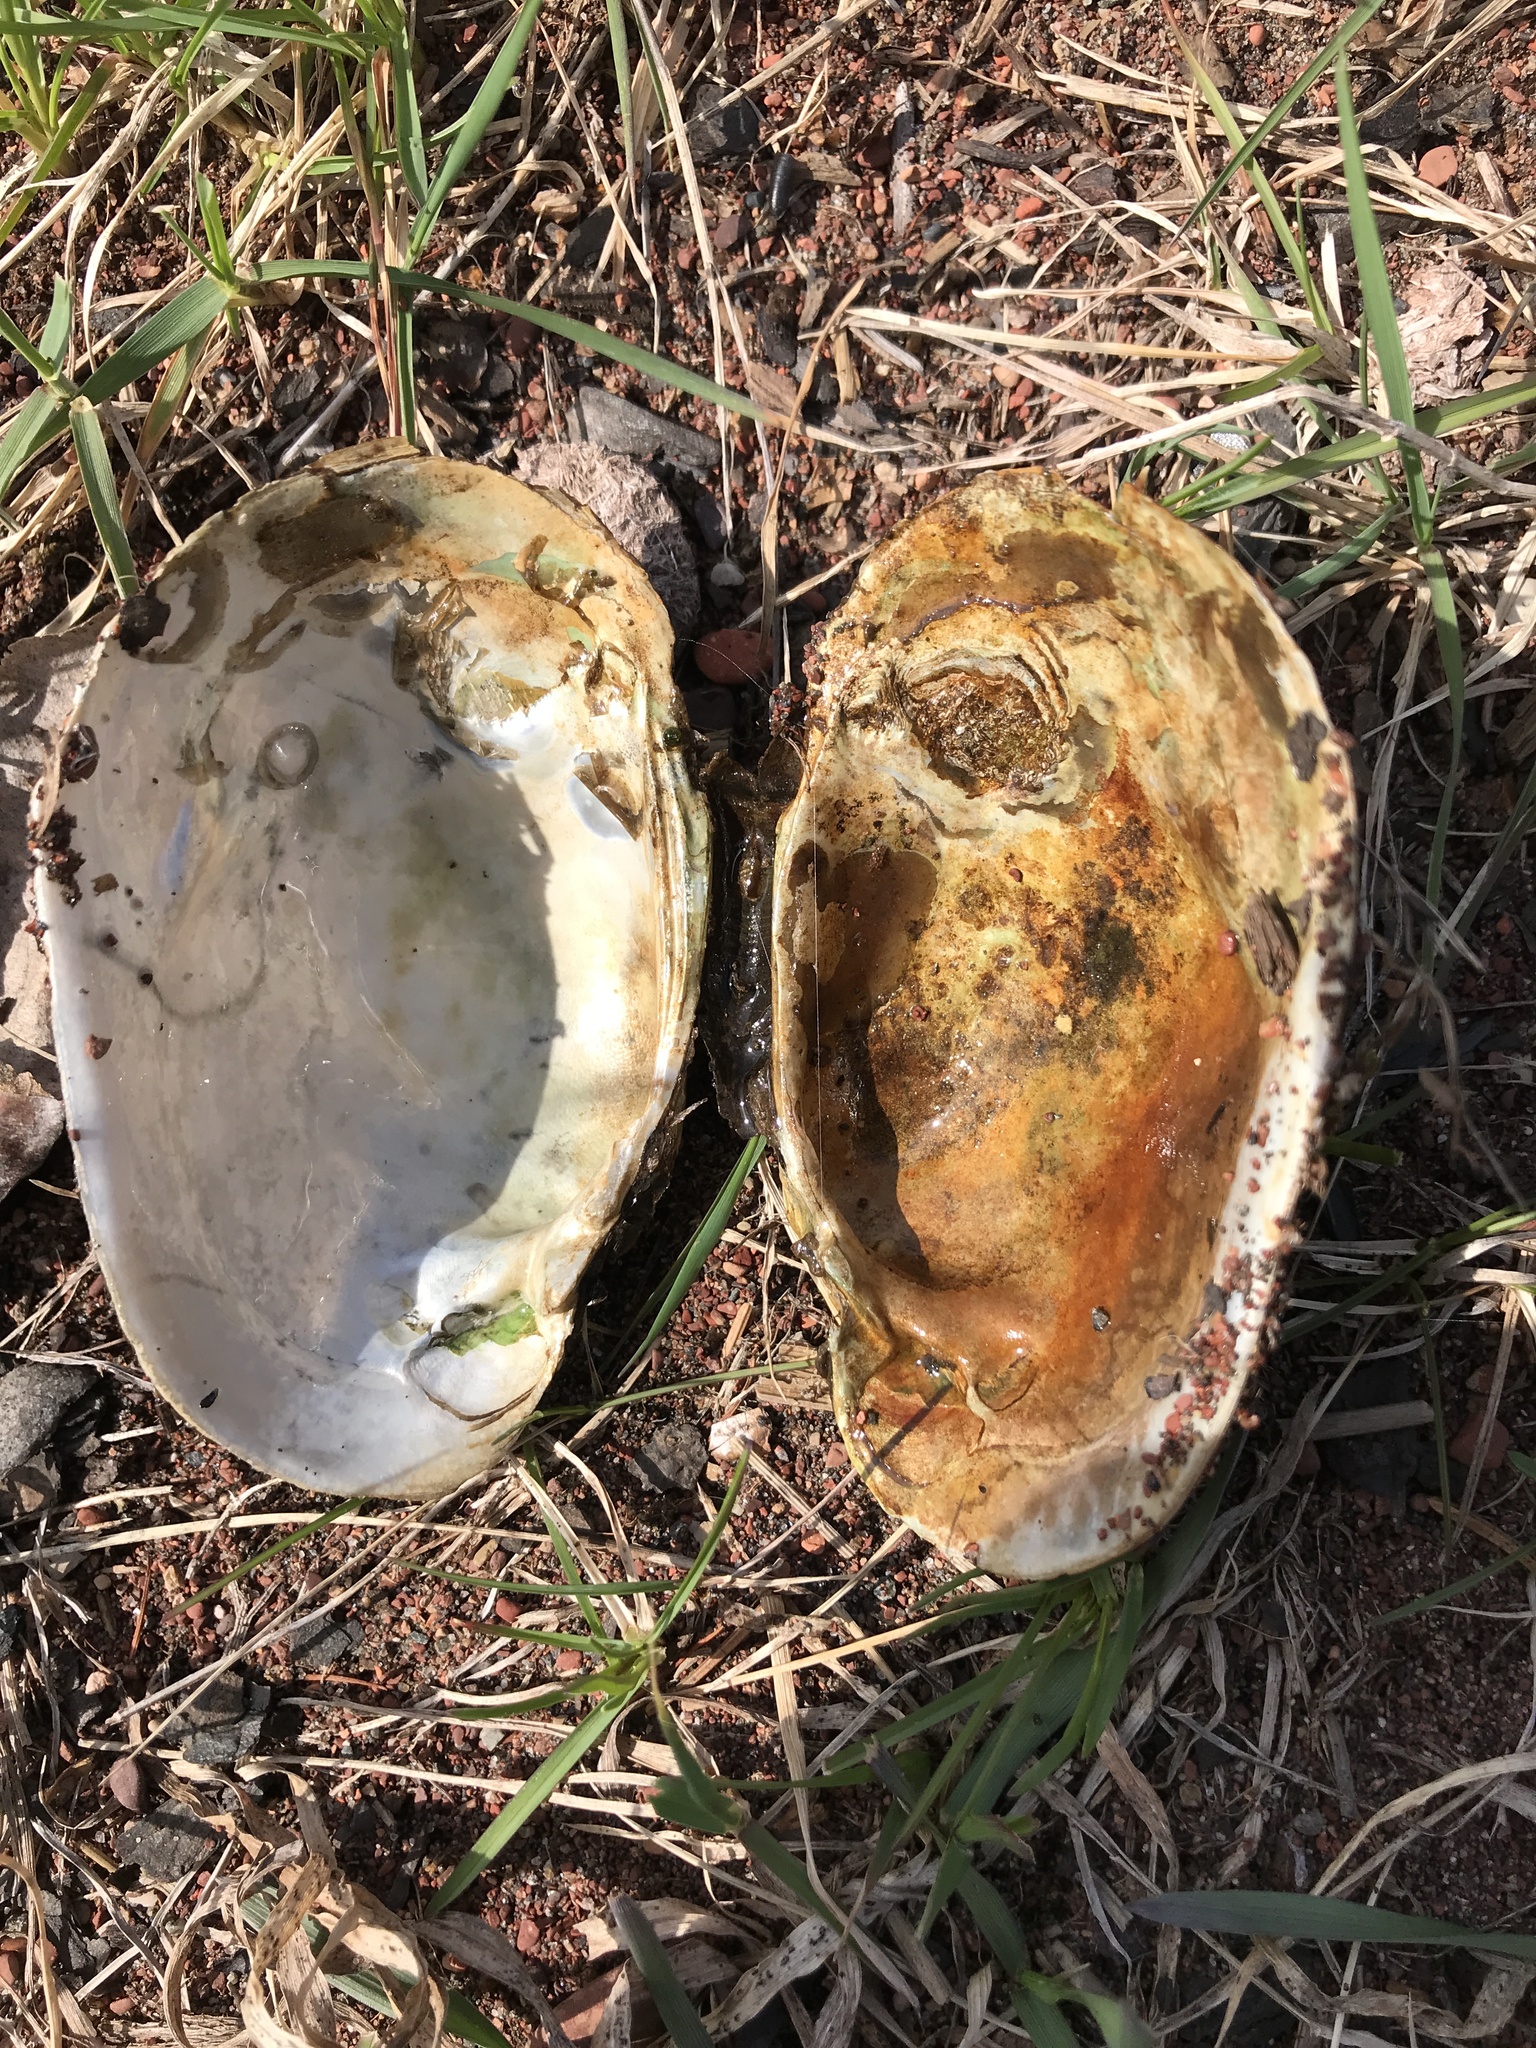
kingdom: Animalia
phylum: Mollusca
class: Bivalvia
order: Unionida
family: Unionidae
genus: Lampsilis
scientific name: Lampsilis siliquoidea
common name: Fatmucket
